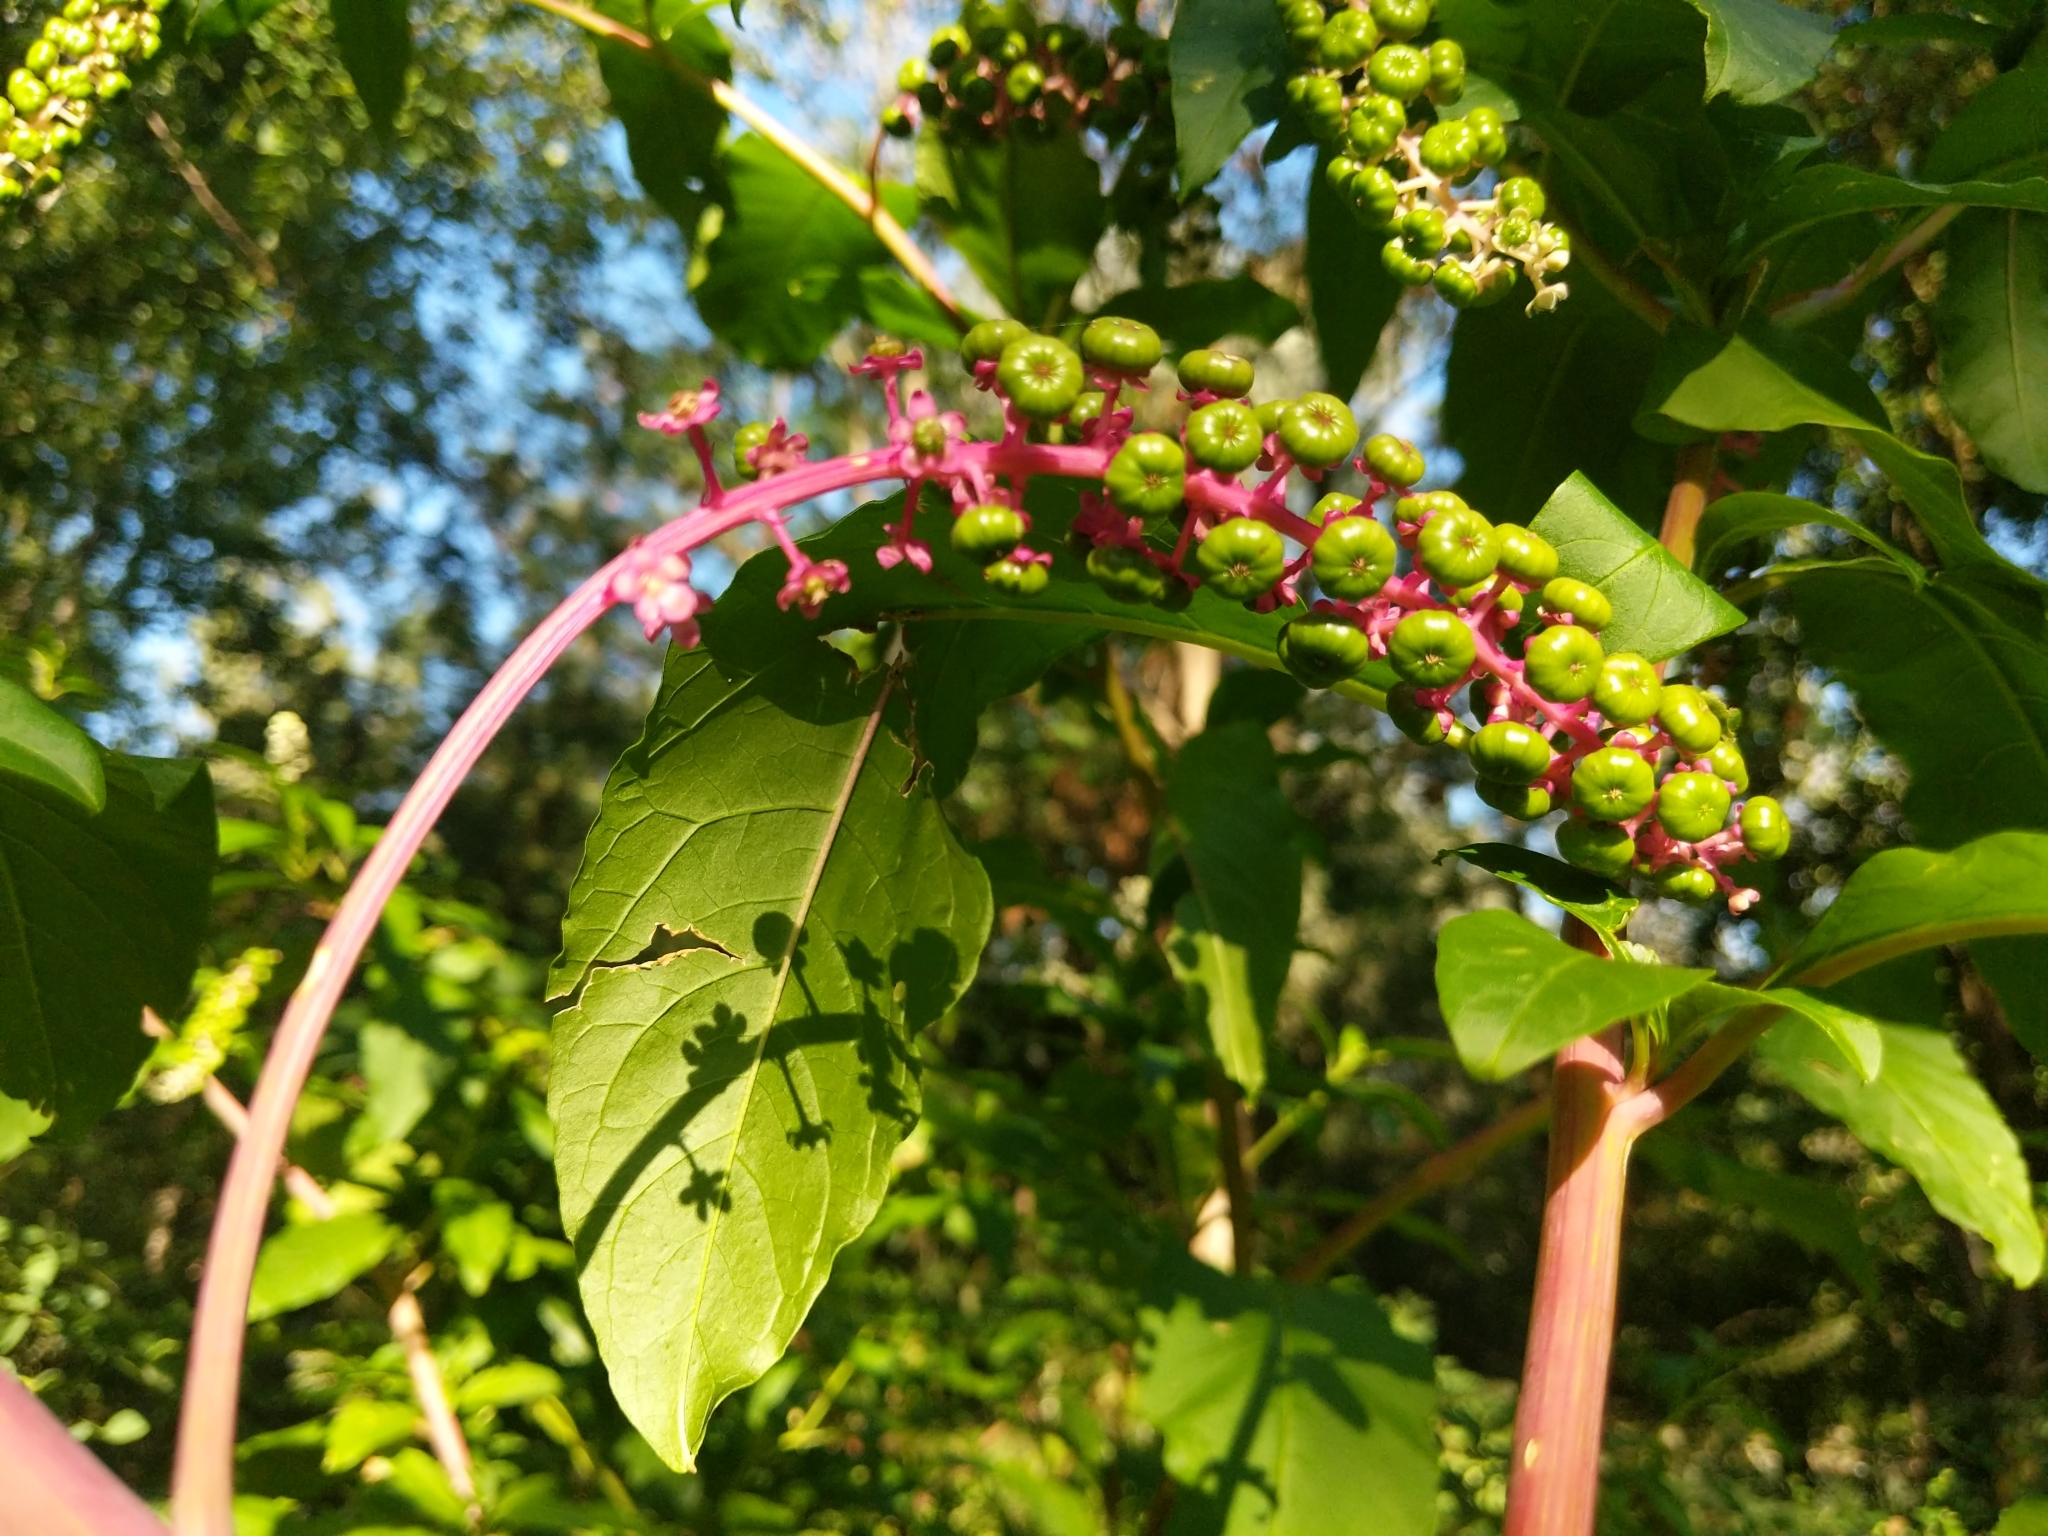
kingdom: Plantae
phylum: Tracheophyta
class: Magnoliopsida
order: Caryophyllales
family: Phytolaccaceae
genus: Phytolacca
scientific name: Phytolacca americana
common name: American pokeweed
